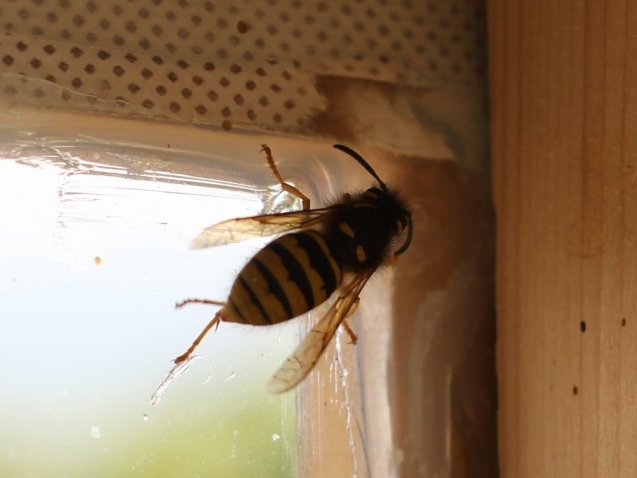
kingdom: Animalia
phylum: Arthropoda
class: Insecta
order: Hymenoptera
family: Vespidae
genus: Dolichovespula
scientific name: Dolichovespula sylvestris
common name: Tree wasp
